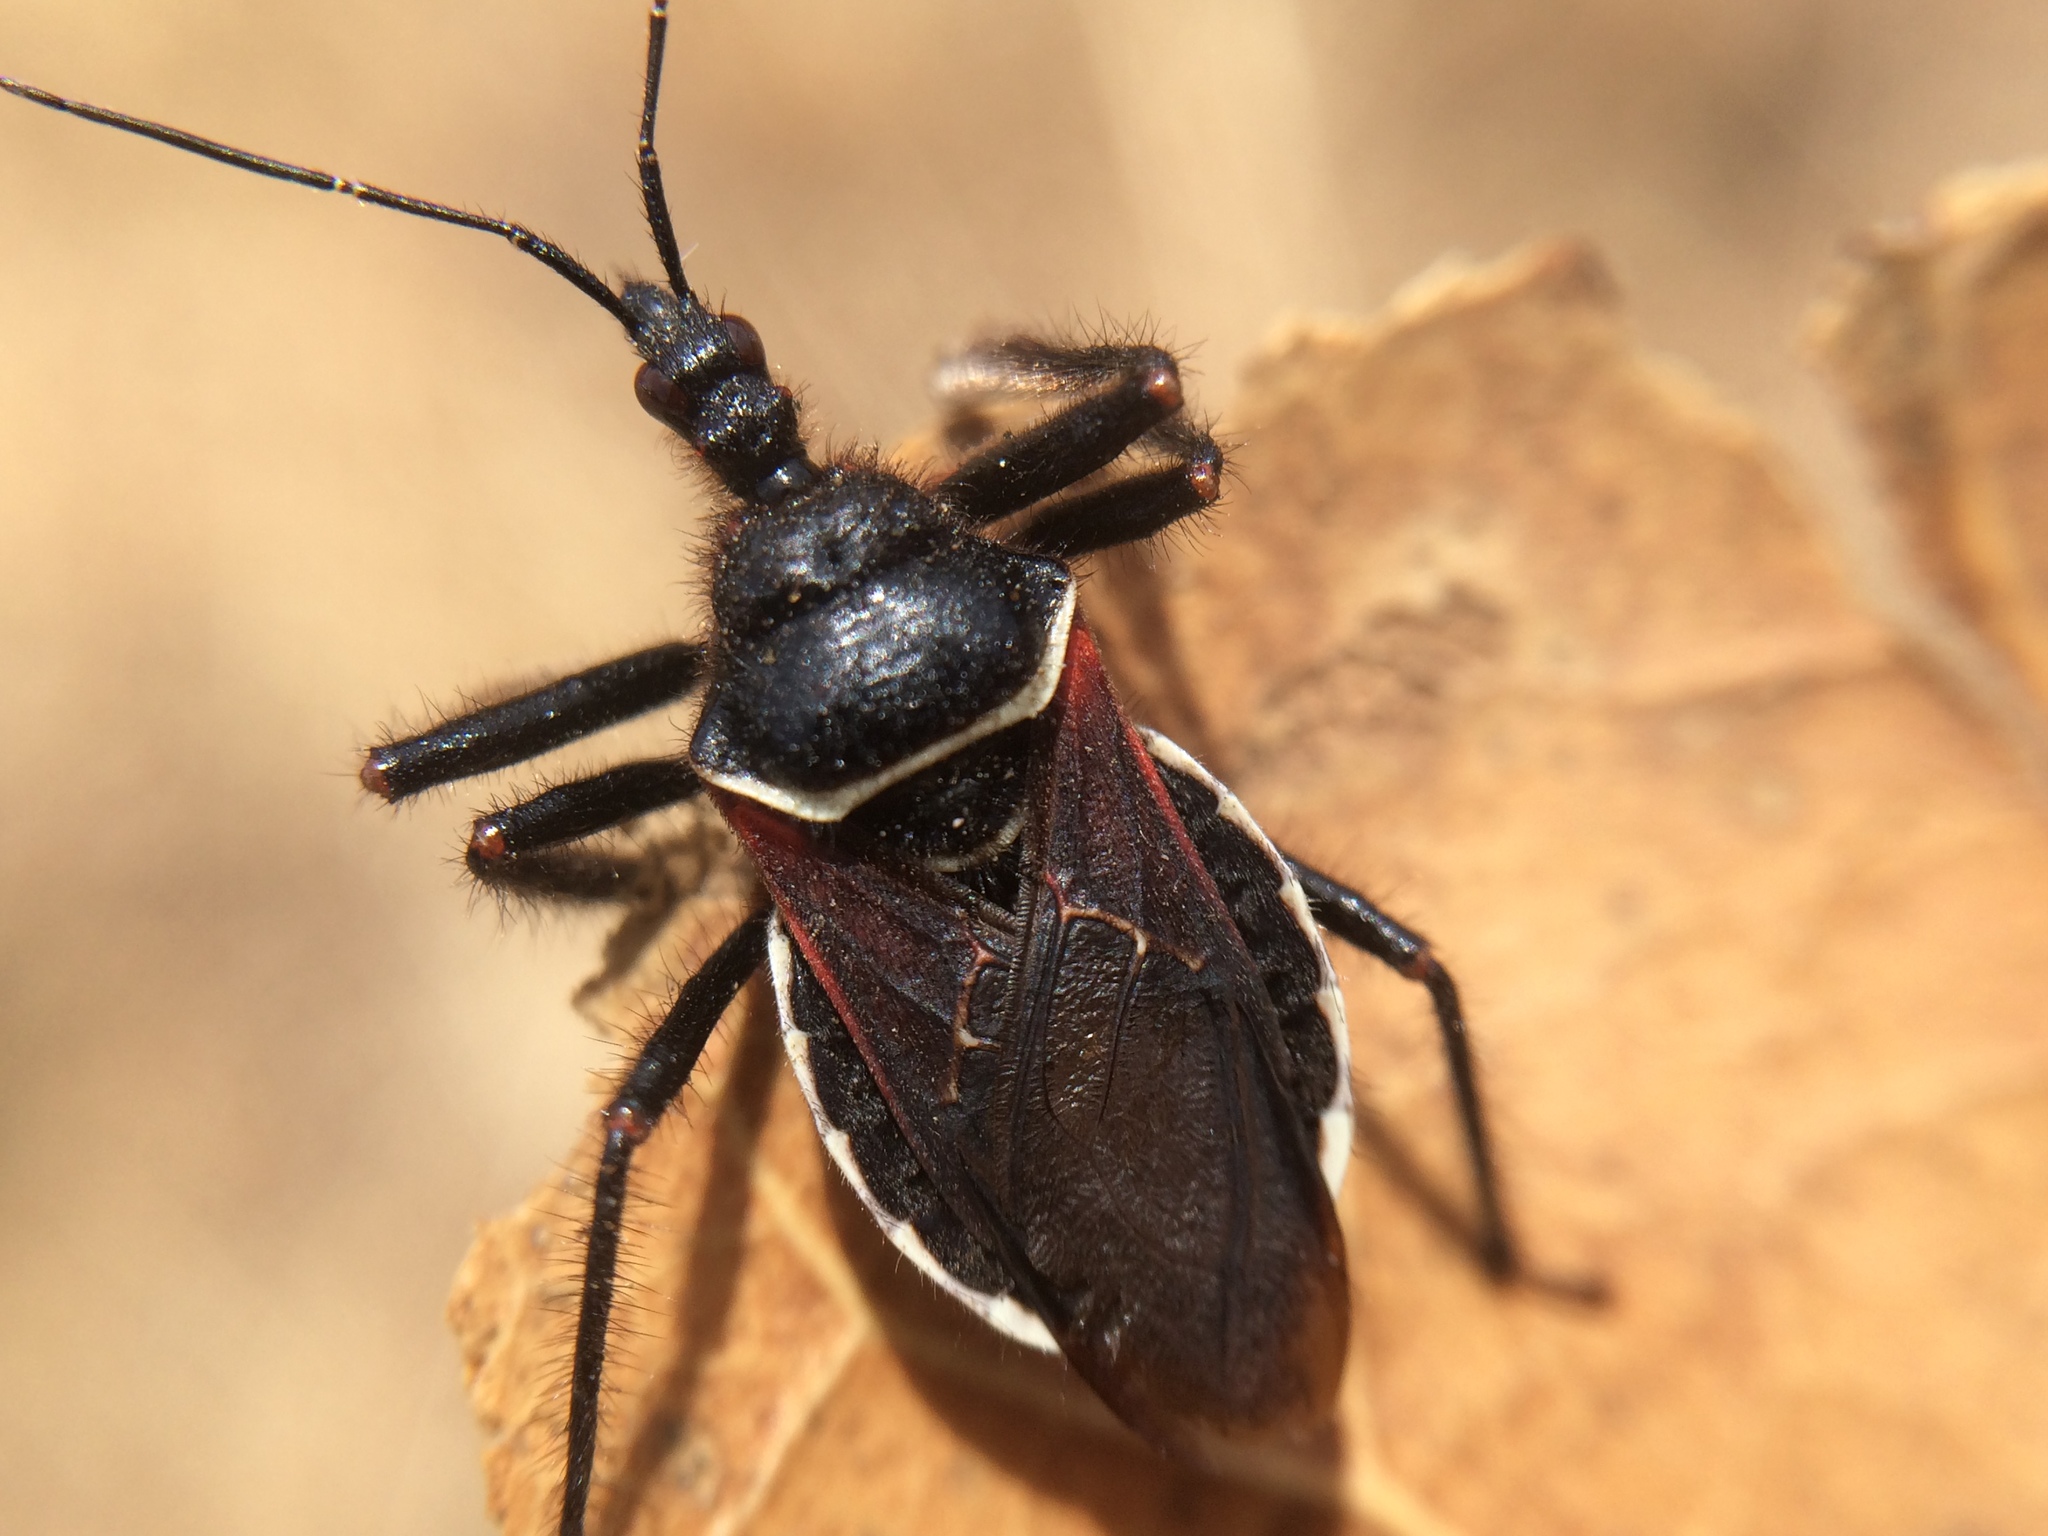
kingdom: Animalia
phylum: Arthropoda
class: Insecta
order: Hemiptera
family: Reduviidae
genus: Apiomerus
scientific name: Apiomerus californicus
